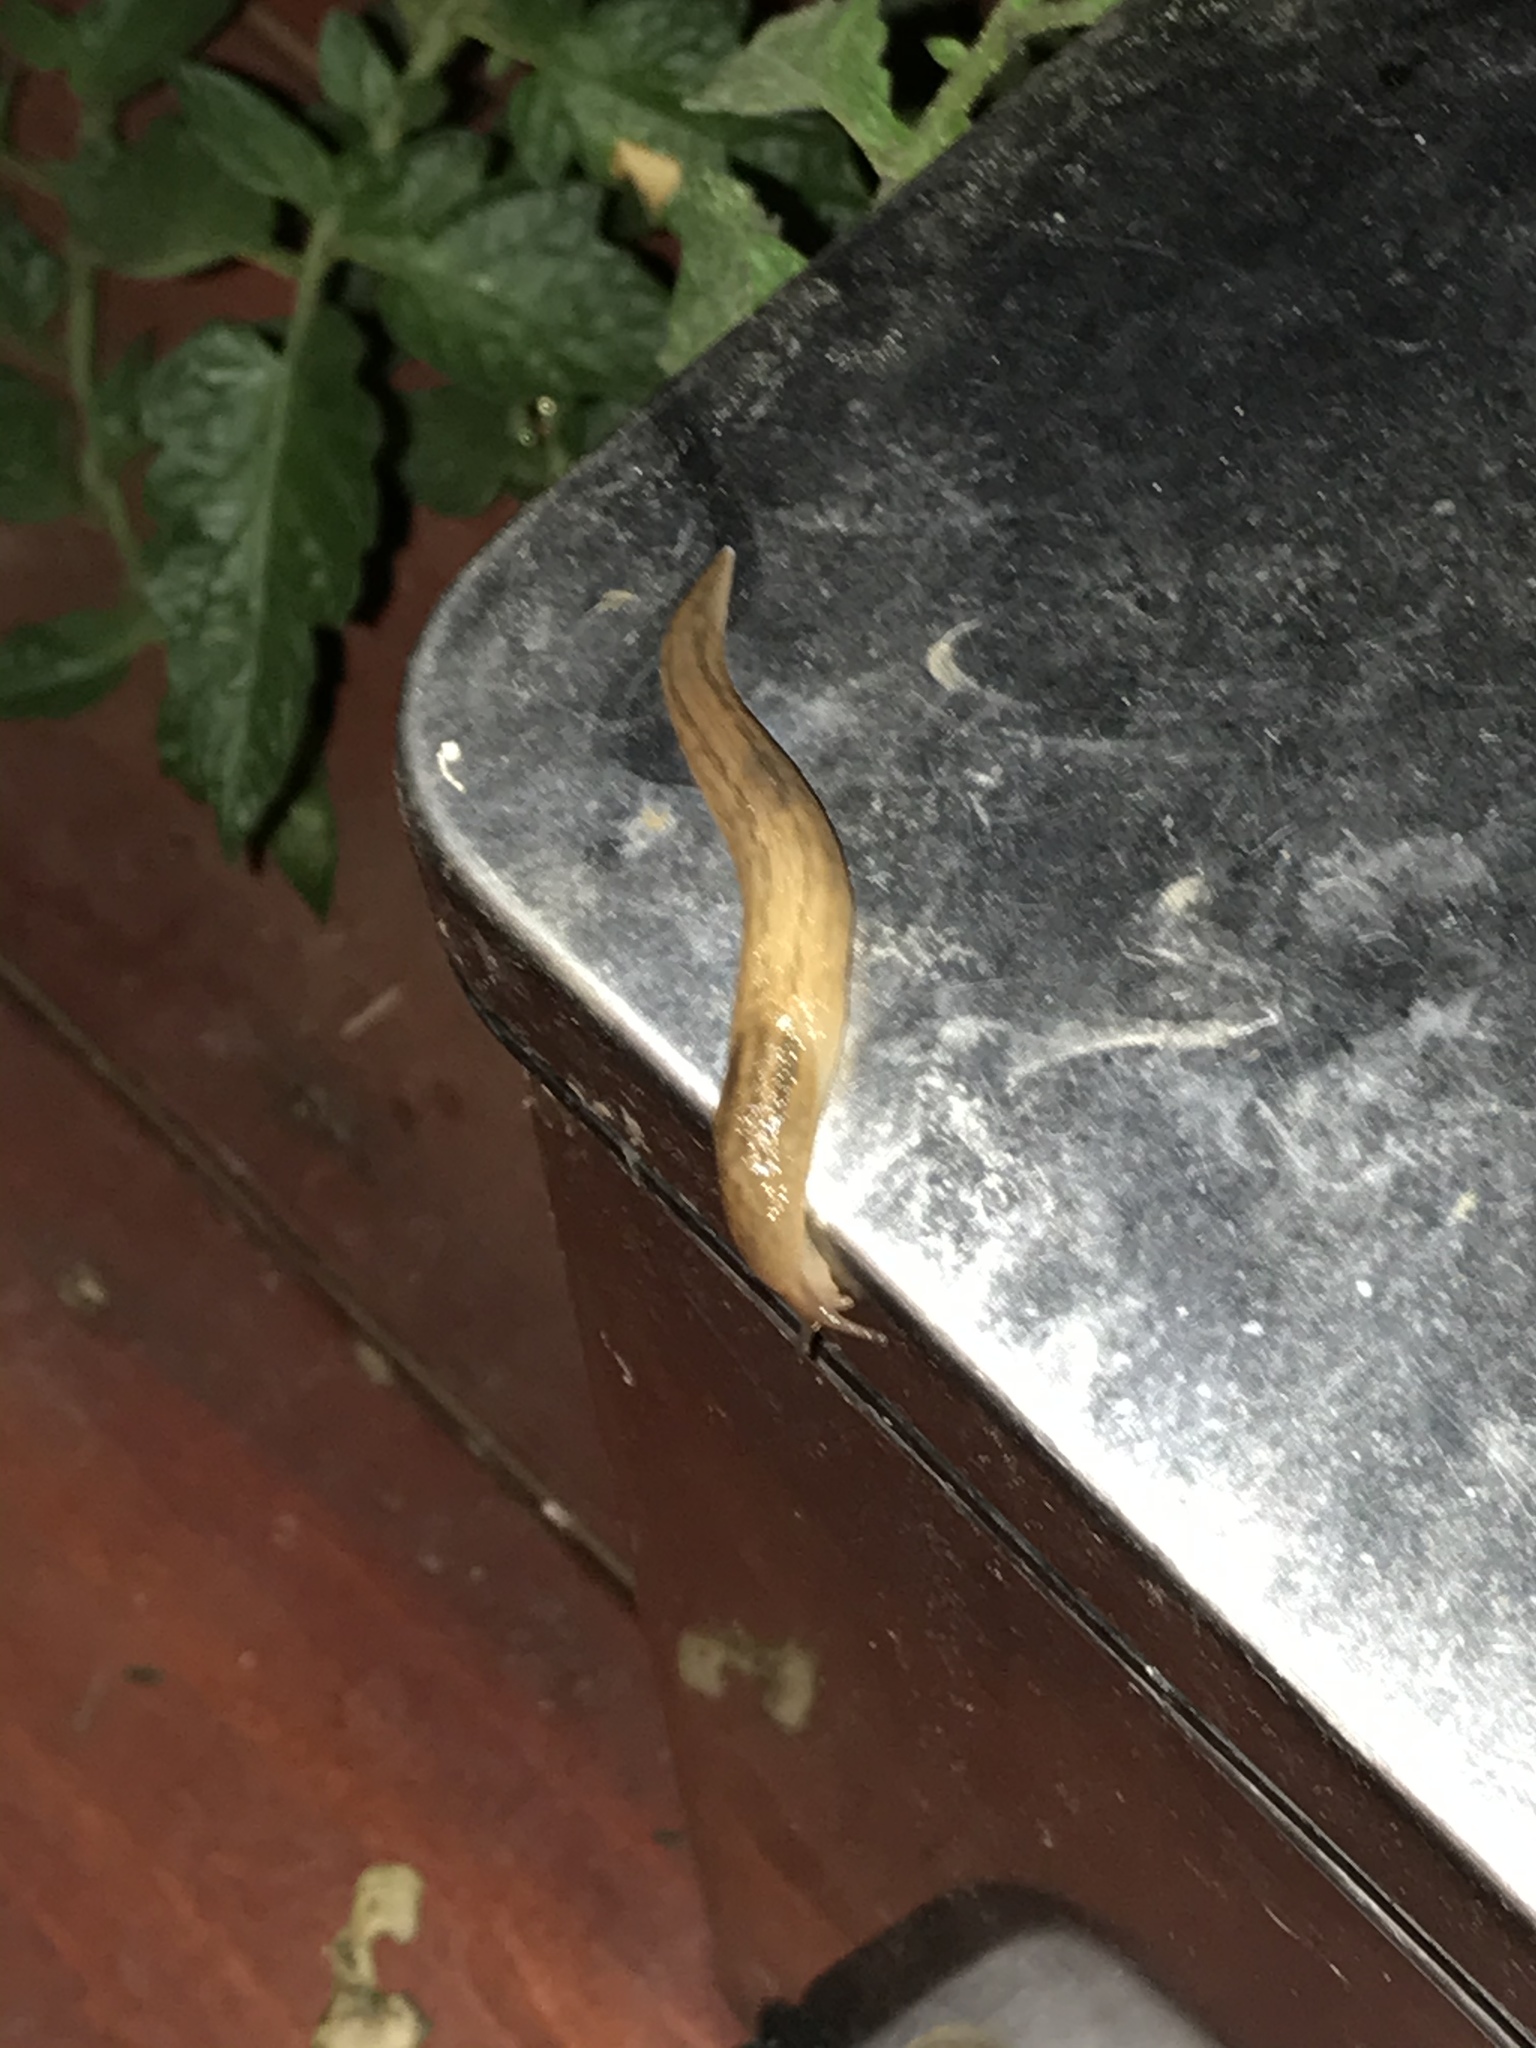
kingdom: Animalia
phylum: Mollusca
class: Gastropoda
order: Stylommatophora
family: Limacidae
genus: Ambigolimax
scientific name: Ambigolimax
